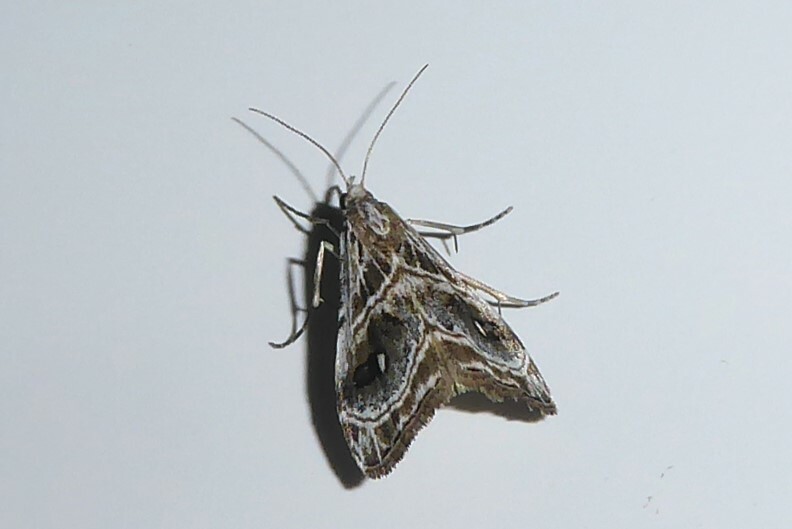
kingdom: Animalia
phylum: Arthropoda
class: Insecta
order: Lepidoptera
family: Crambidae
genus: Gadira
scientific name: Gadira acerella
